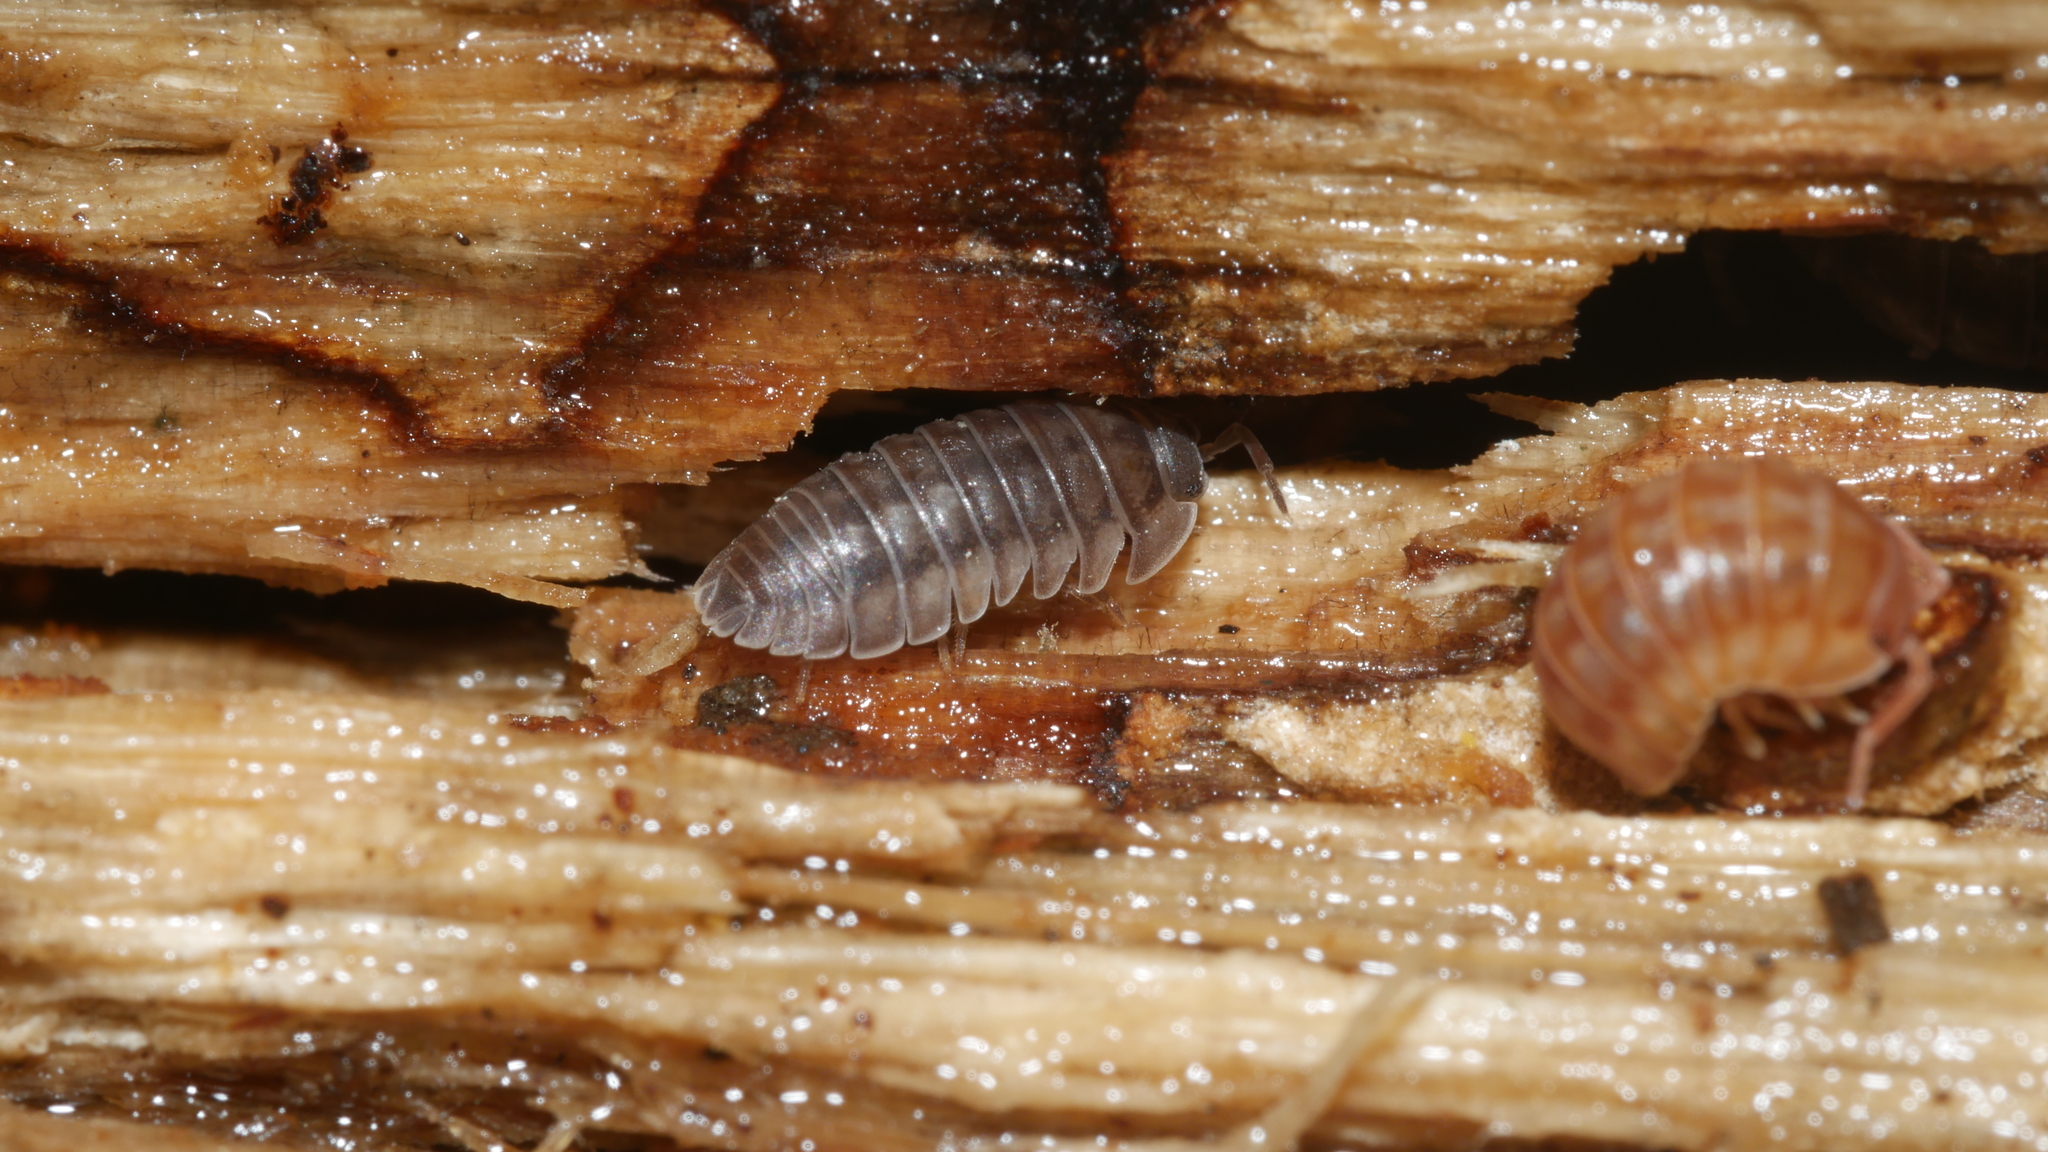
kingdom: Animalia
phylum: Arthropoda
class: Malacostraca
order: Isopoda
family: Armadillidiidae
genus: Armadillidium
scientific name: Armadillidium nasatum
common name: Isopod
